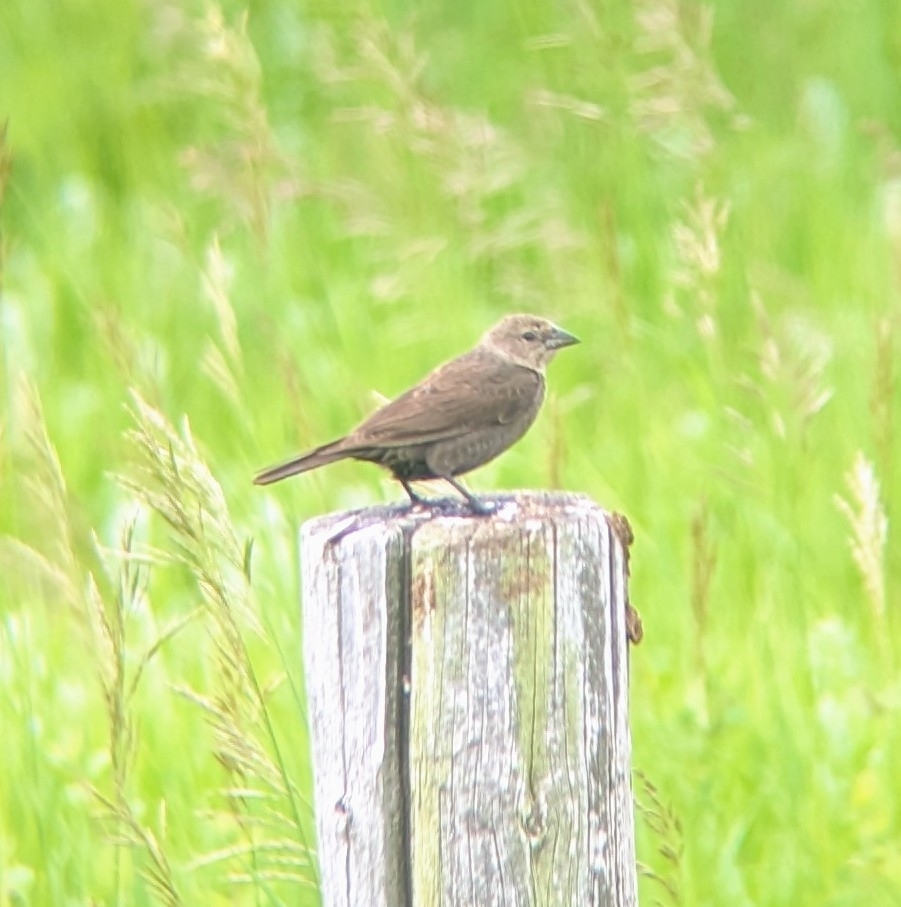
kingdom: Animalia
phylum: Chordata
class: Aves
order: Passeriformes
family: Icteridae
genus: Molothrus
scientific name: Molothrus ater
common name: Brown-headed cowbird
